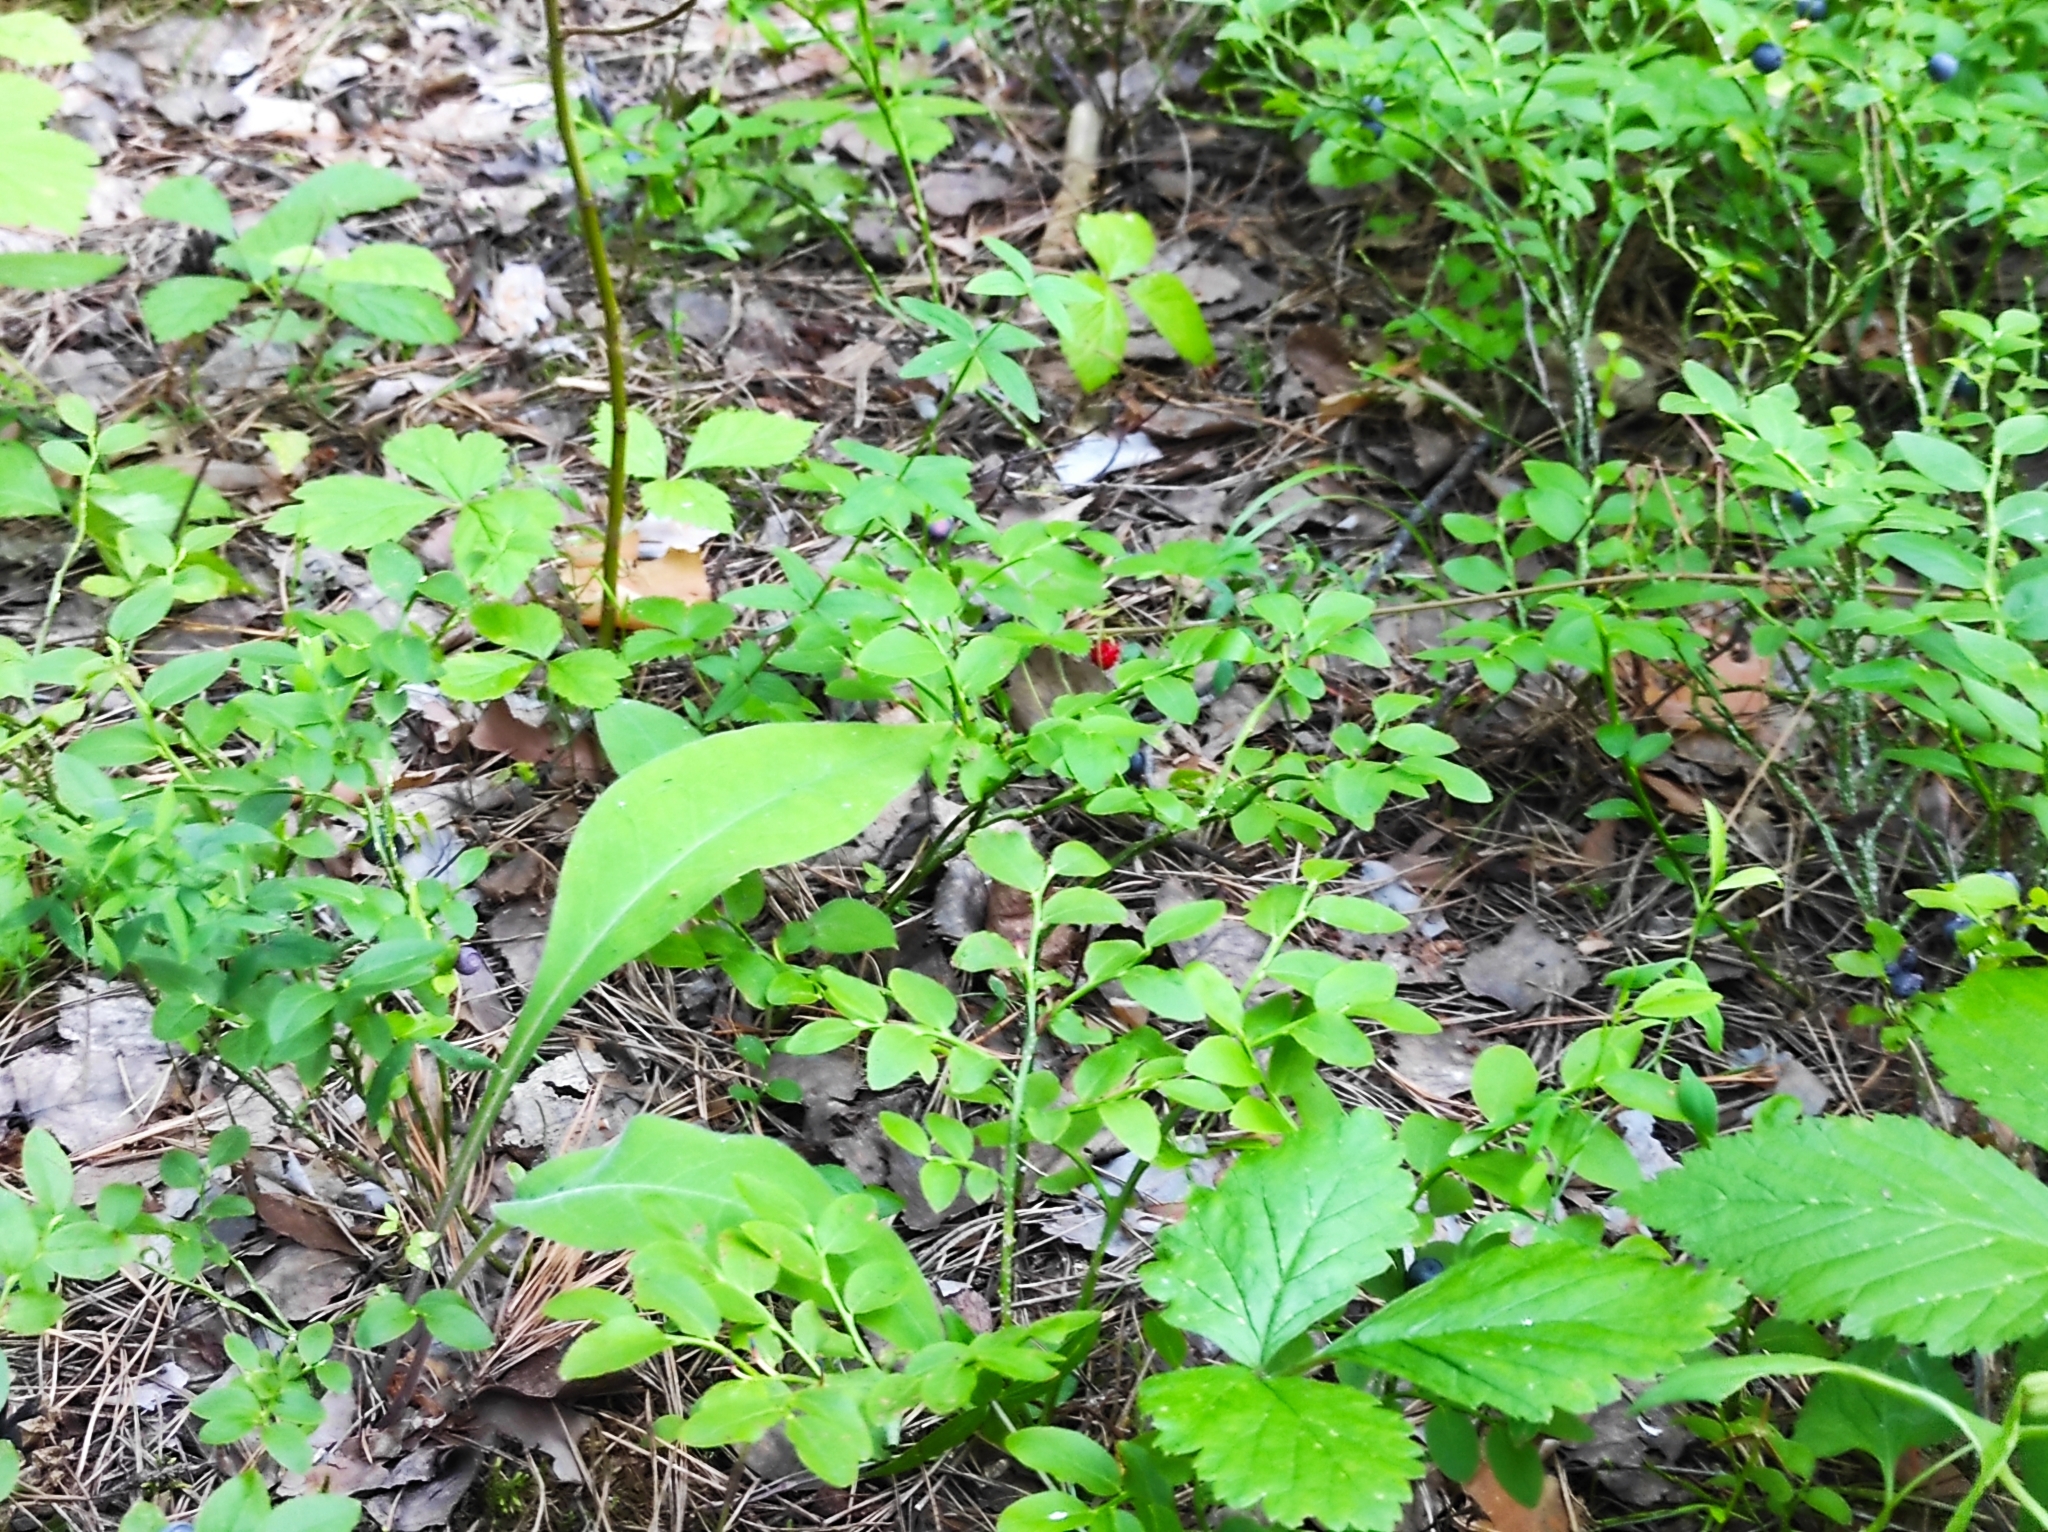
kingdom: Plantae
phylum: Tracheophyta
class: Magnoliopsida
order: Rosales
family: Rosaceae
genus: Fragaria
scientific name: Fragaria vesca
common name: Wild strawberry
